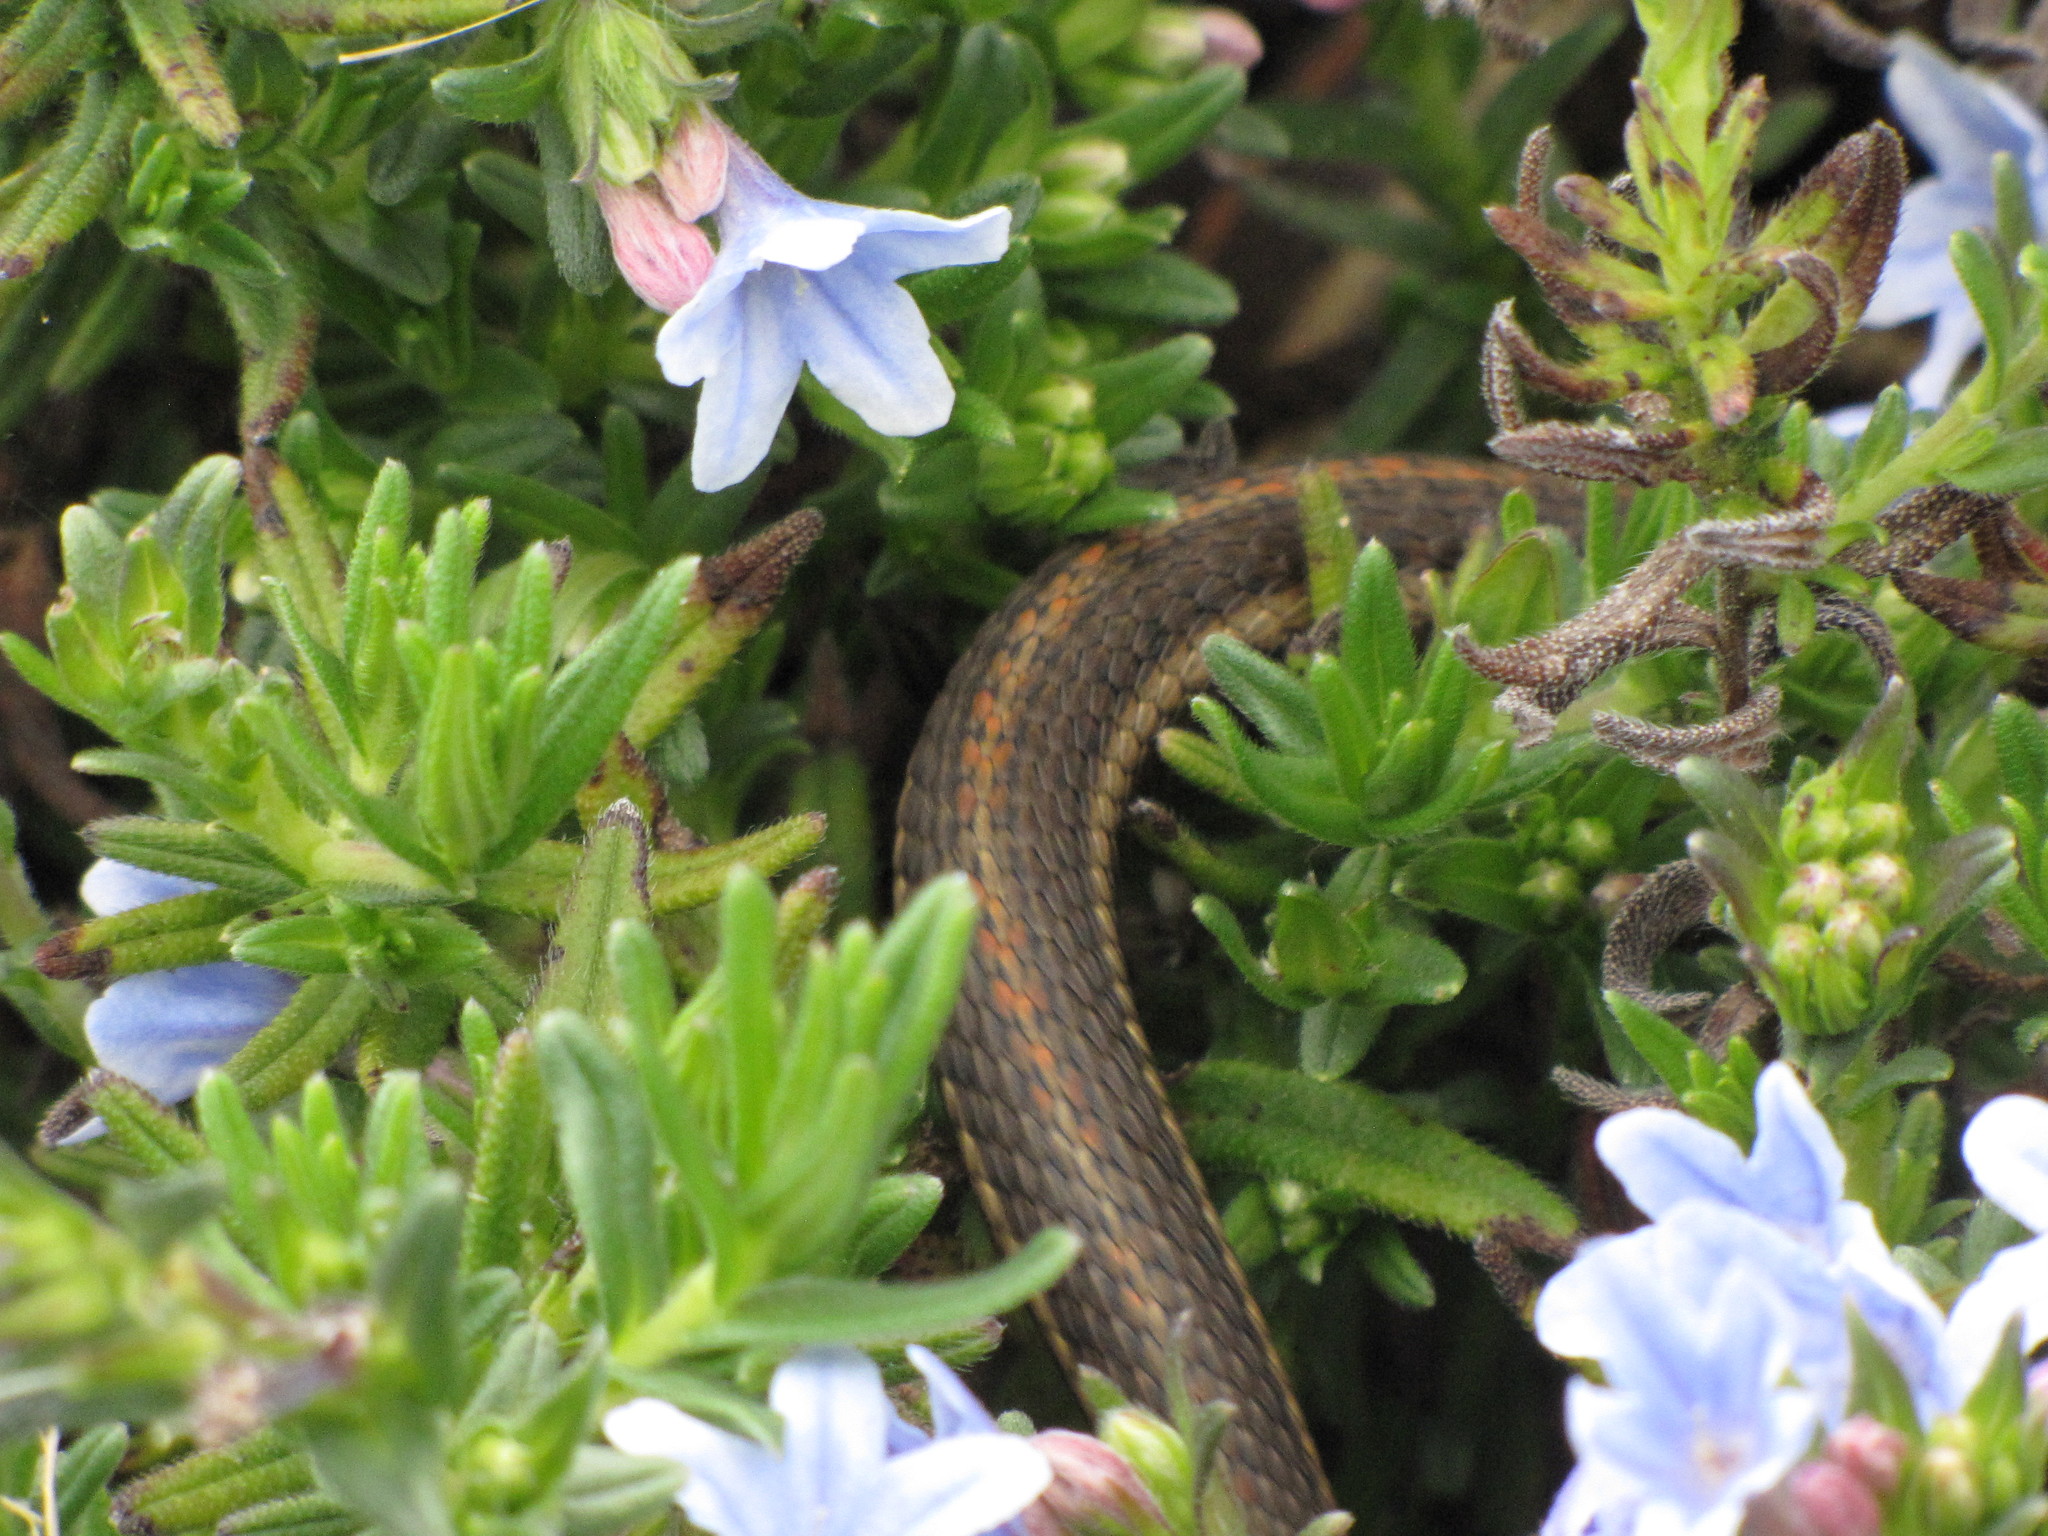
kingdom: Animalia
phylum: Chordata
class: Squamata
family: Colubridae
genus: Thamnophis
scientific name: Thamnophis ordinoides
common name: Northwestern garter snake
